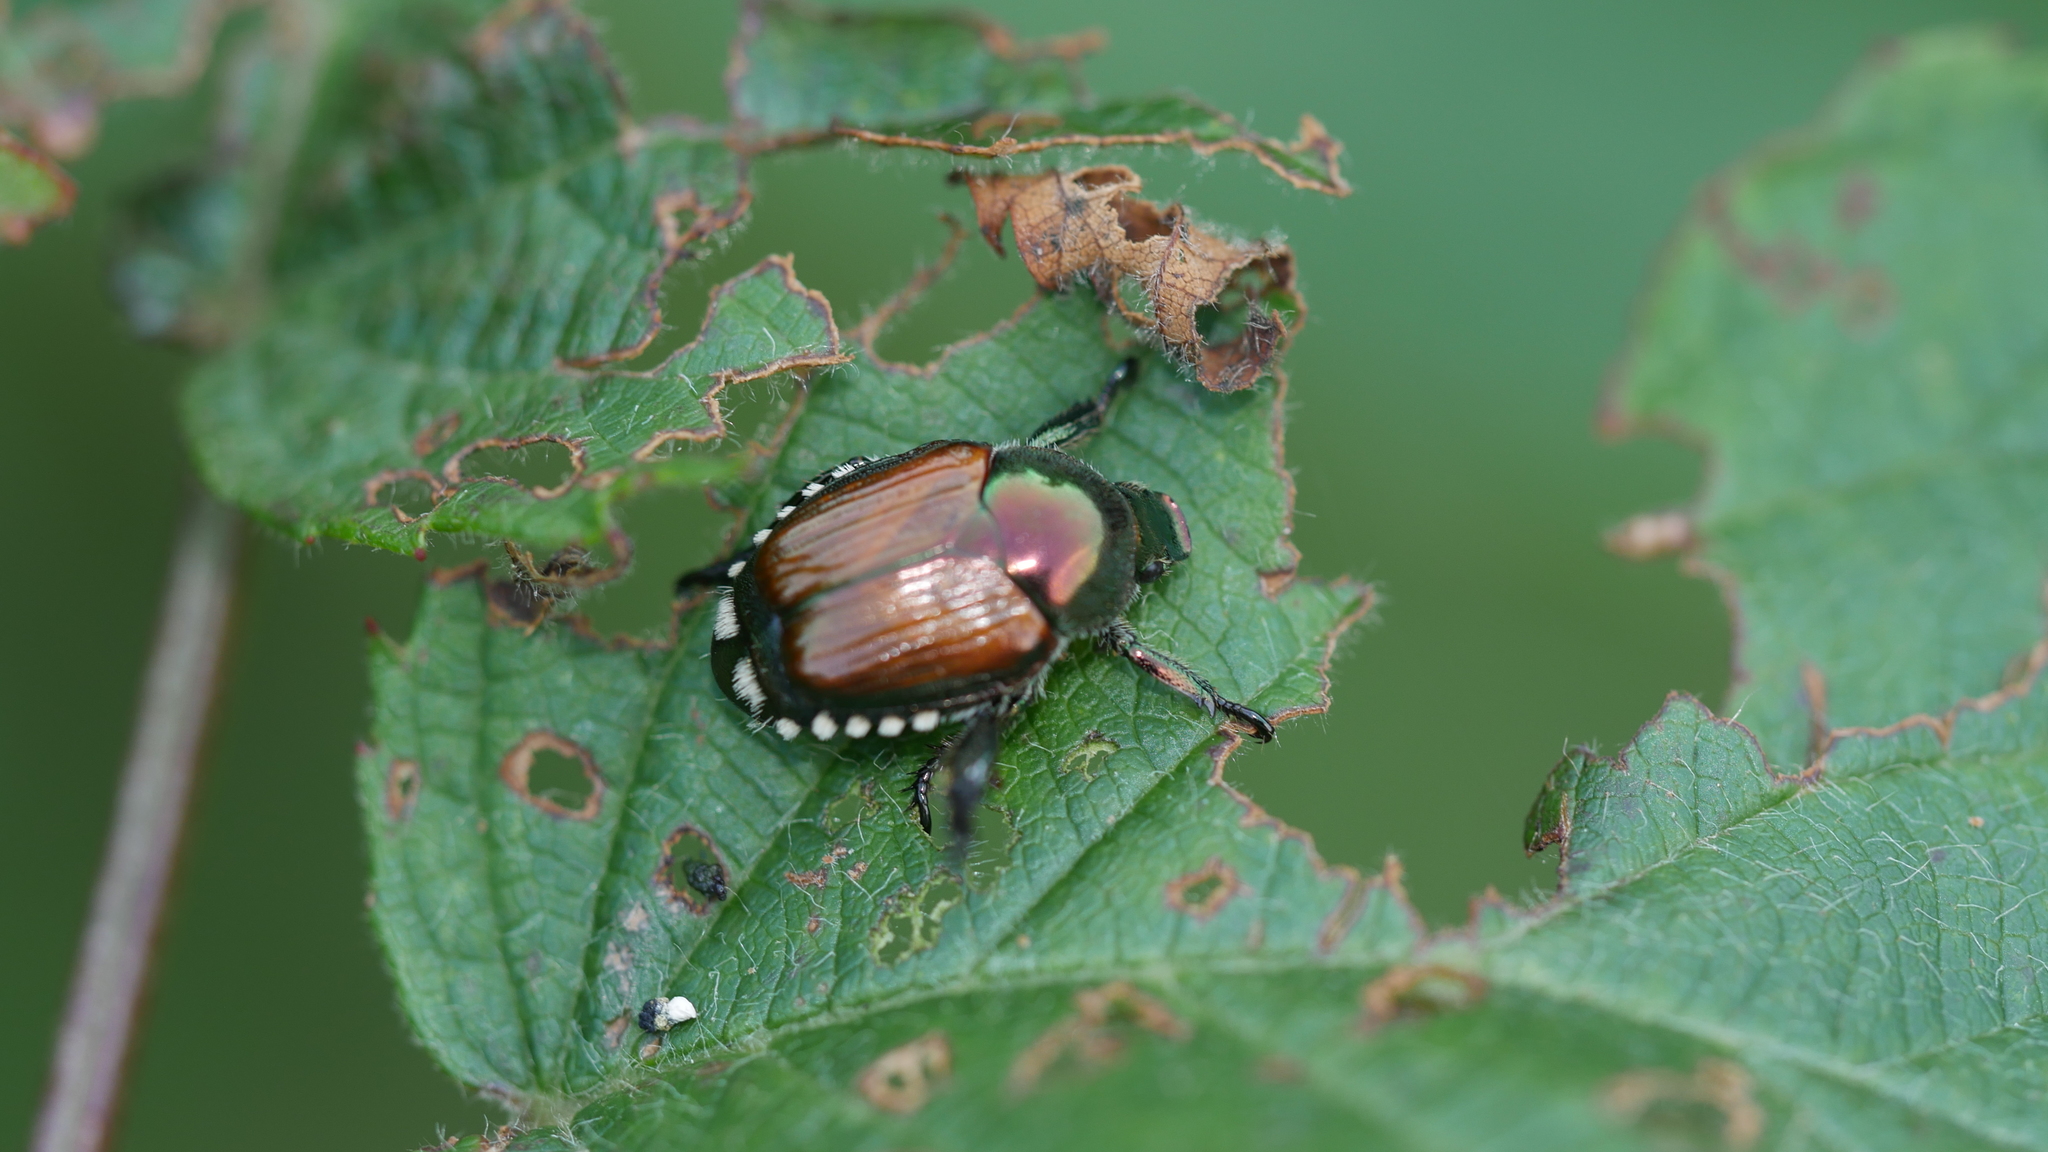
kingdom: Animalia
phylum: Arthropoda
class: Insecta
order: Coleoptera
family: Scarabaeidae
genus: Popillia
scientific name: Popillia japonica
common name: Japanese beetle
